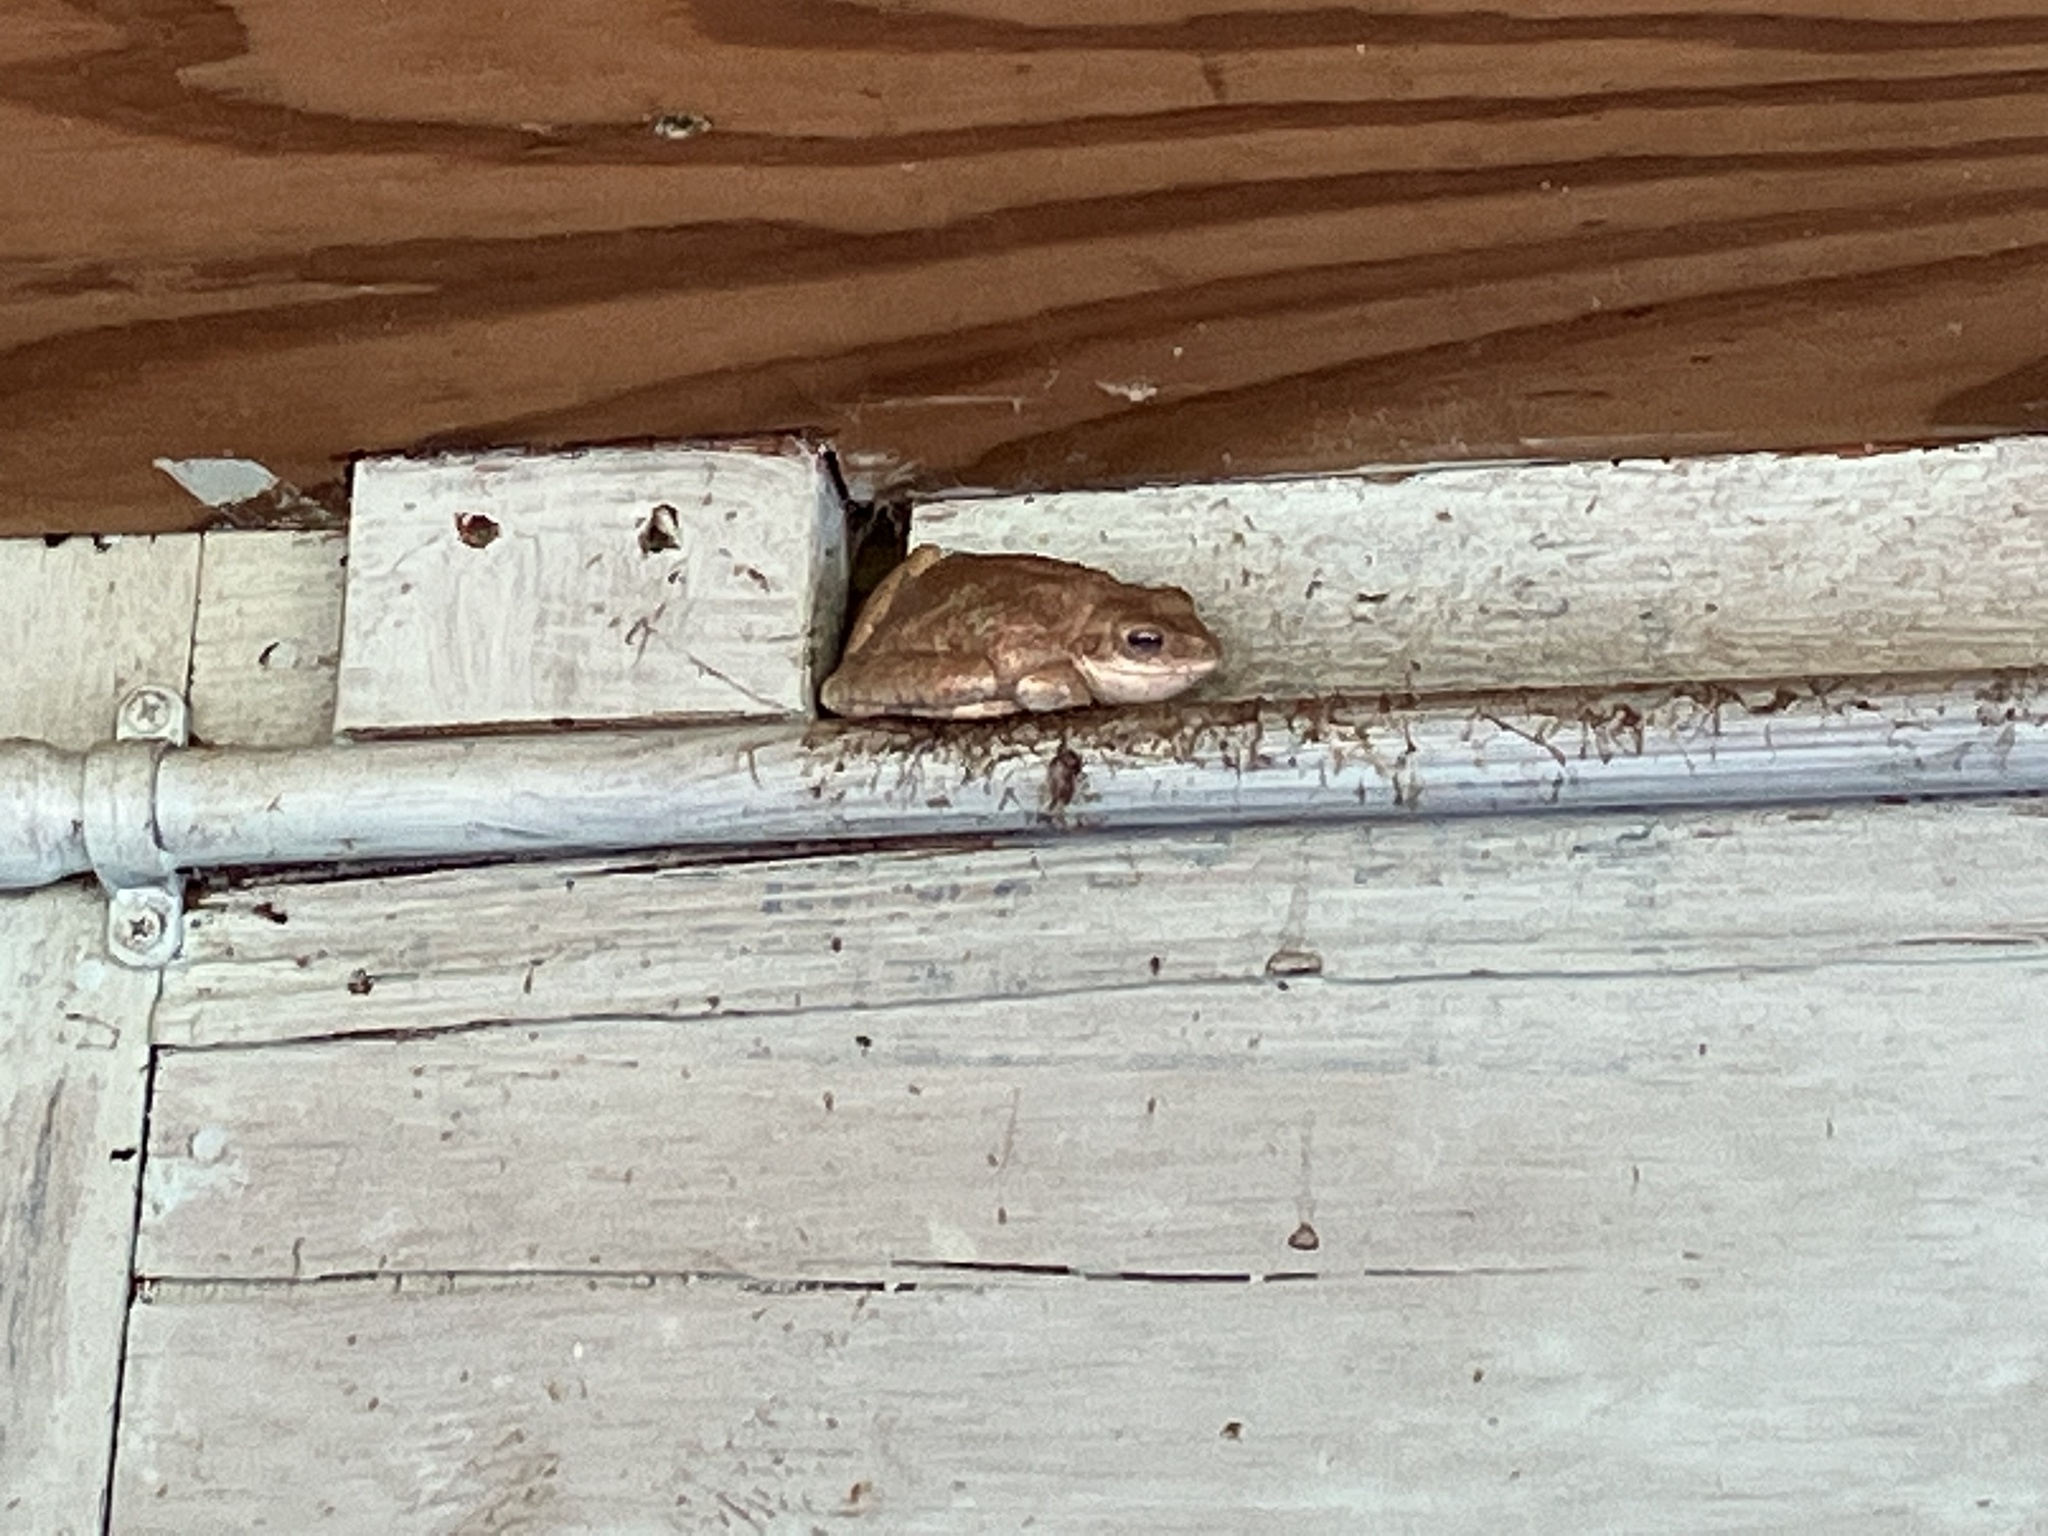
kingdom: Animalia
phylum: Chordata
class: Amphibia
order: Anura
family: Hylidae
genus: Osteopilus
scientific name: Osteopilus septentrionalis
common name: Cuban treefrog
